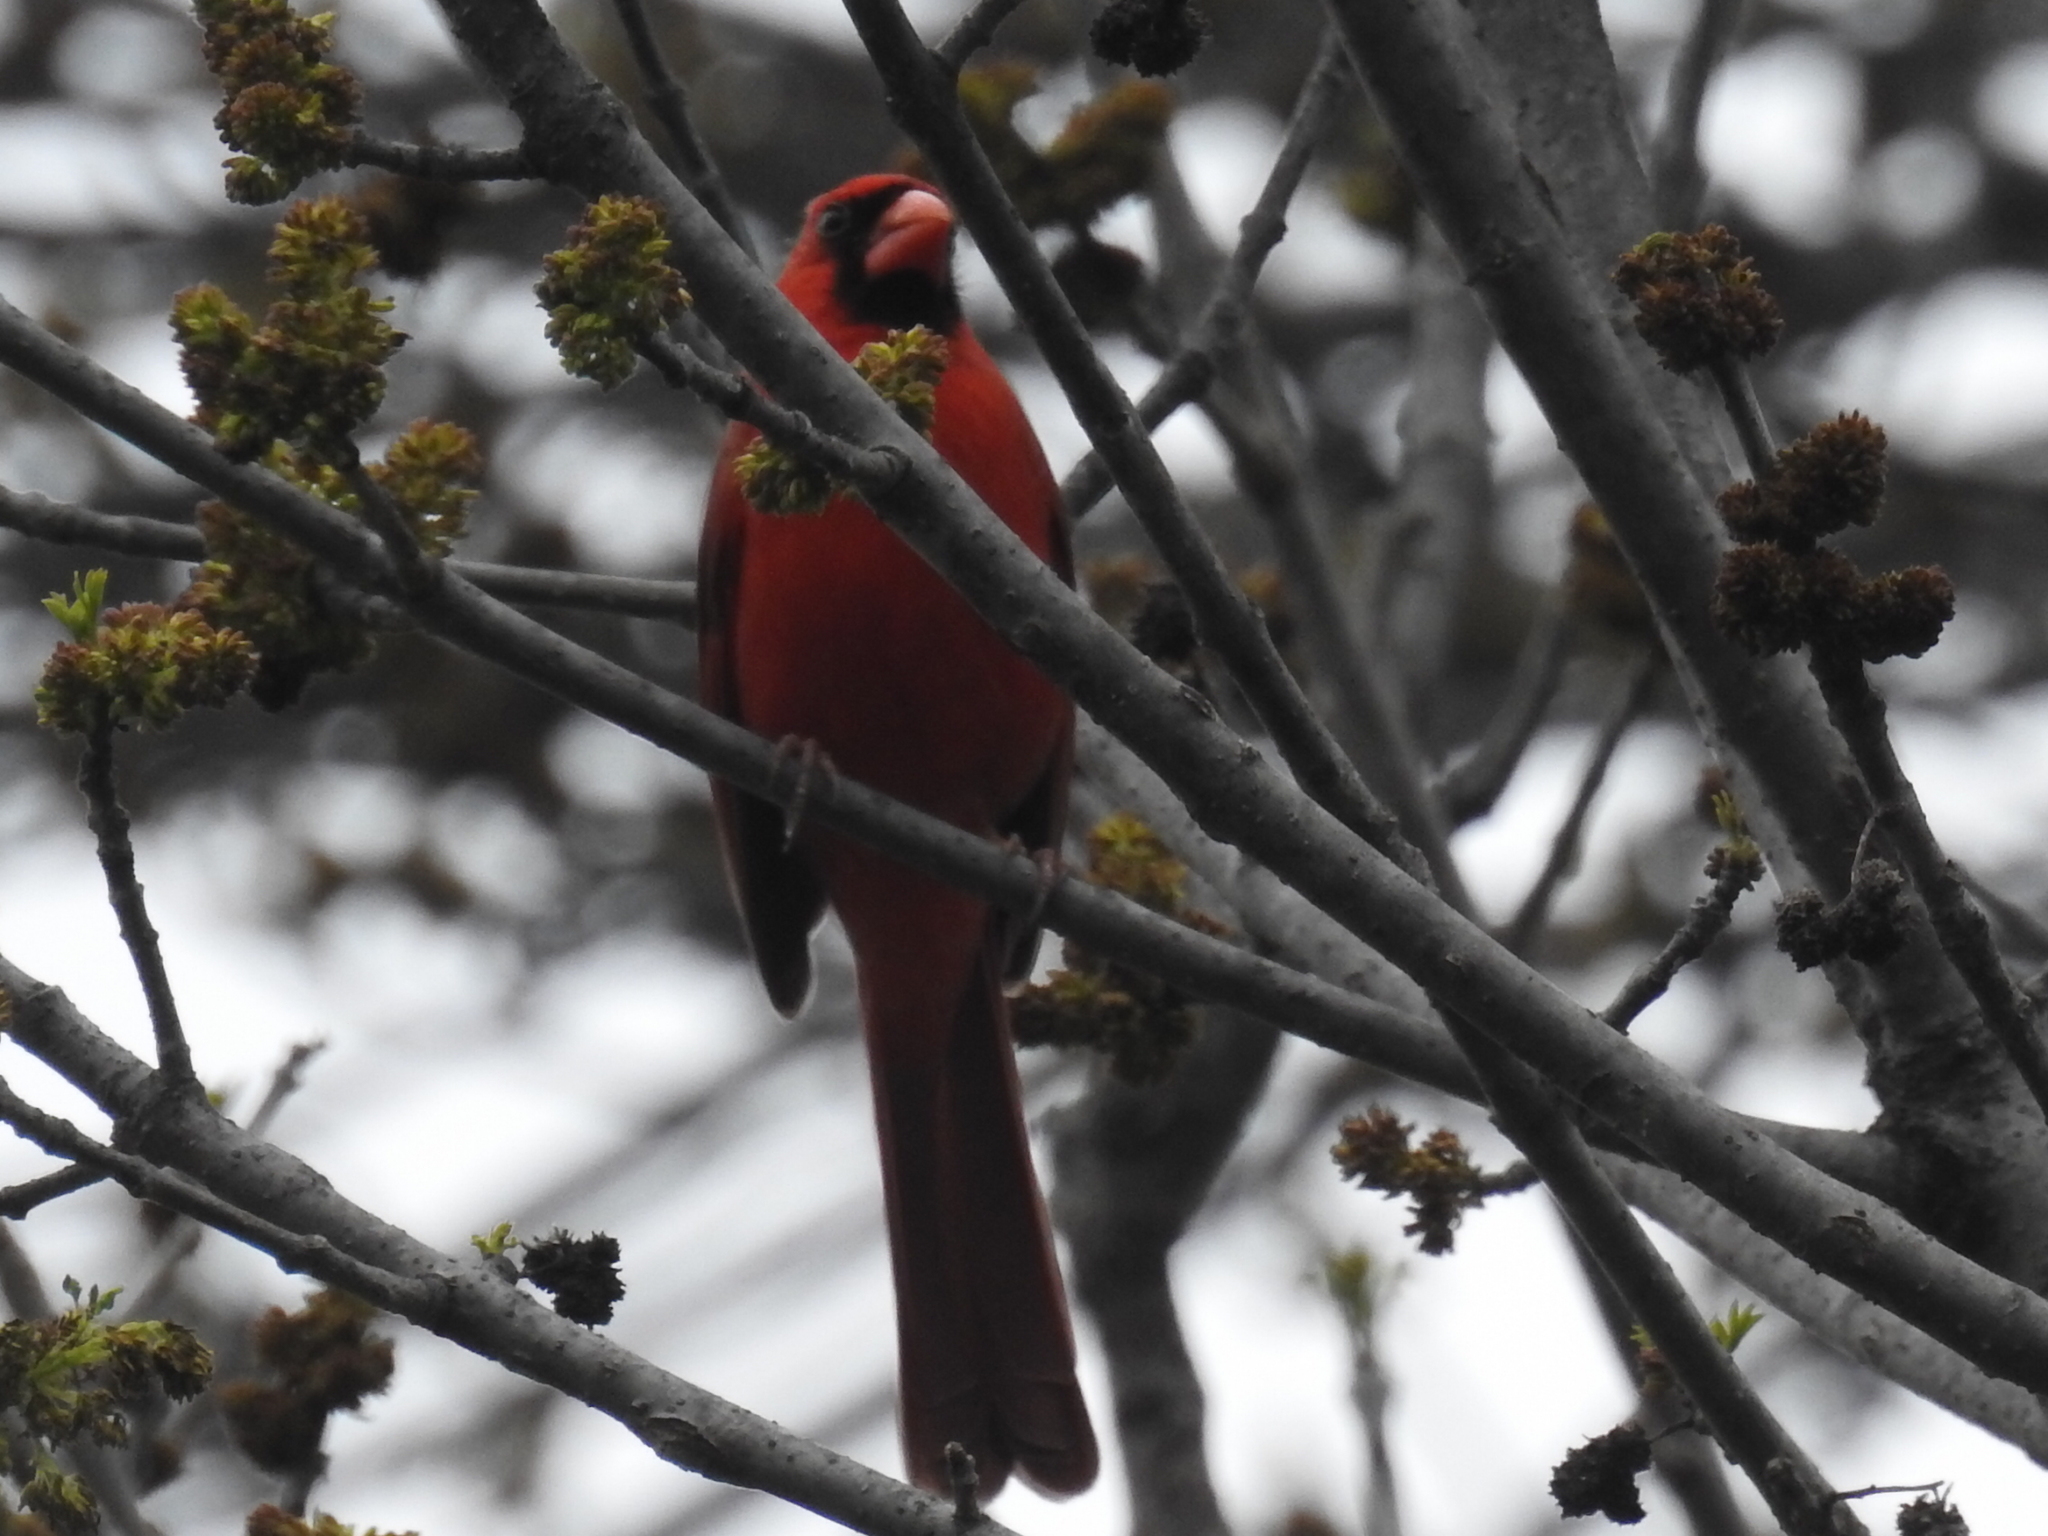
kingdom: Animalia
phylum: Chordata
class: Aves
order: Passeriformes
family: Cardinalidae
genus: Cardinalis
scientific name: Cardinalis cardinalis
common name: Northern cardinal
